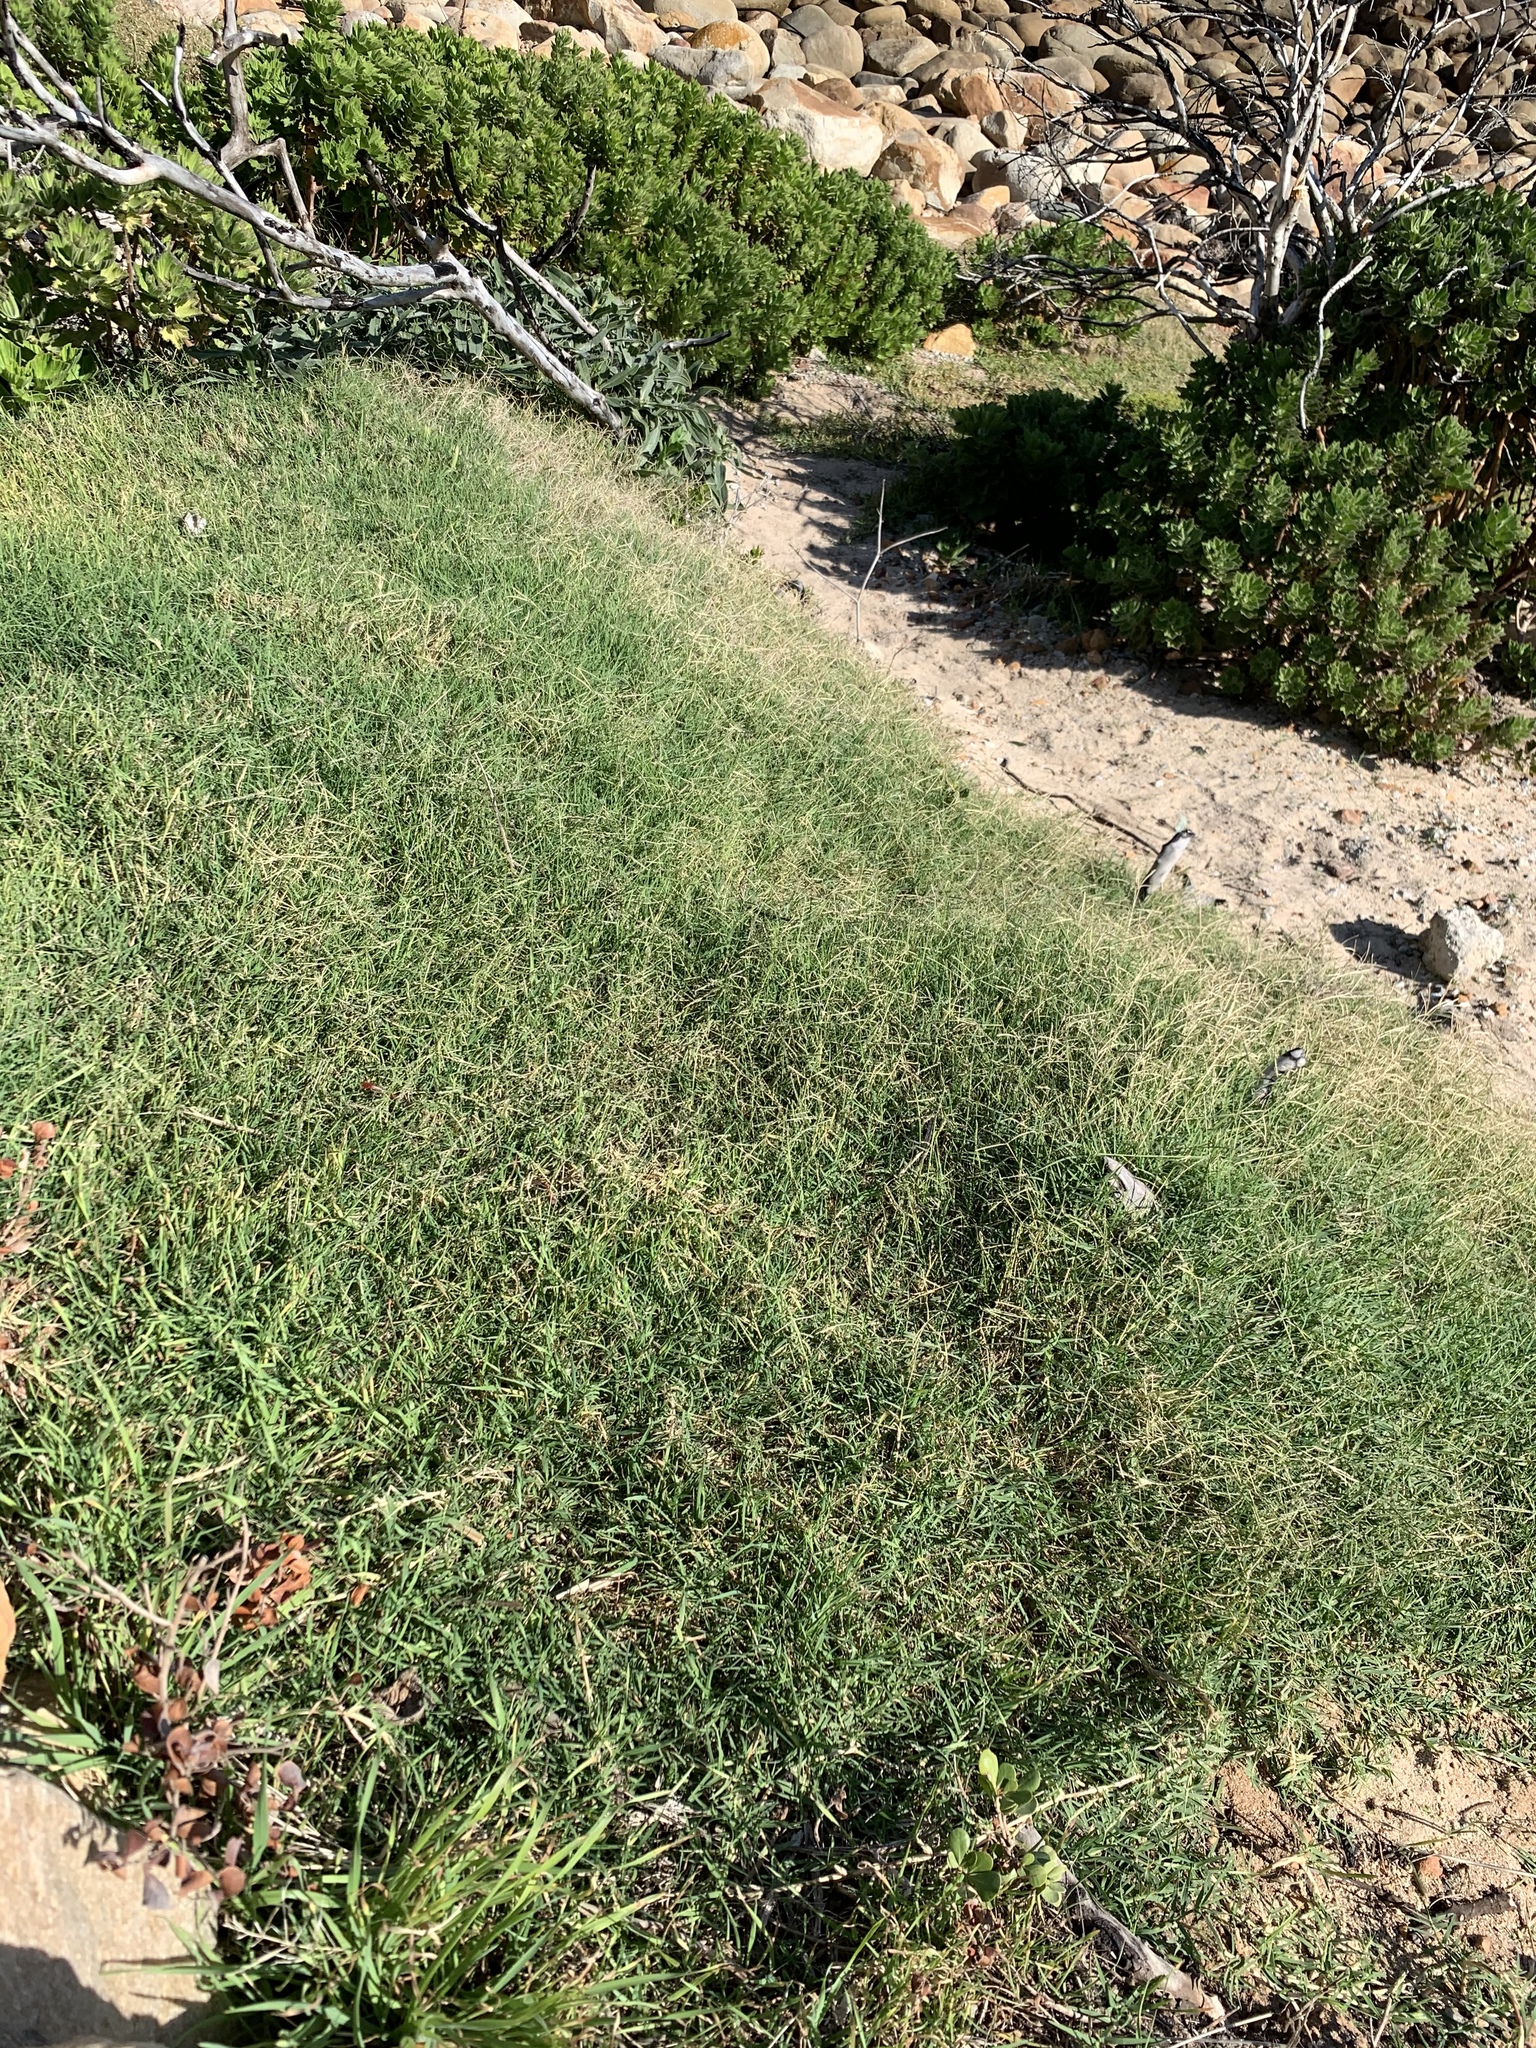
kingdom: Plantae
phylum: Tracheophyta
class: Liliopsida
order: Poales
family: Poaceae
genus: Cynodon
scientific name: Cynodon dactylon
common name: Bermuda grass
